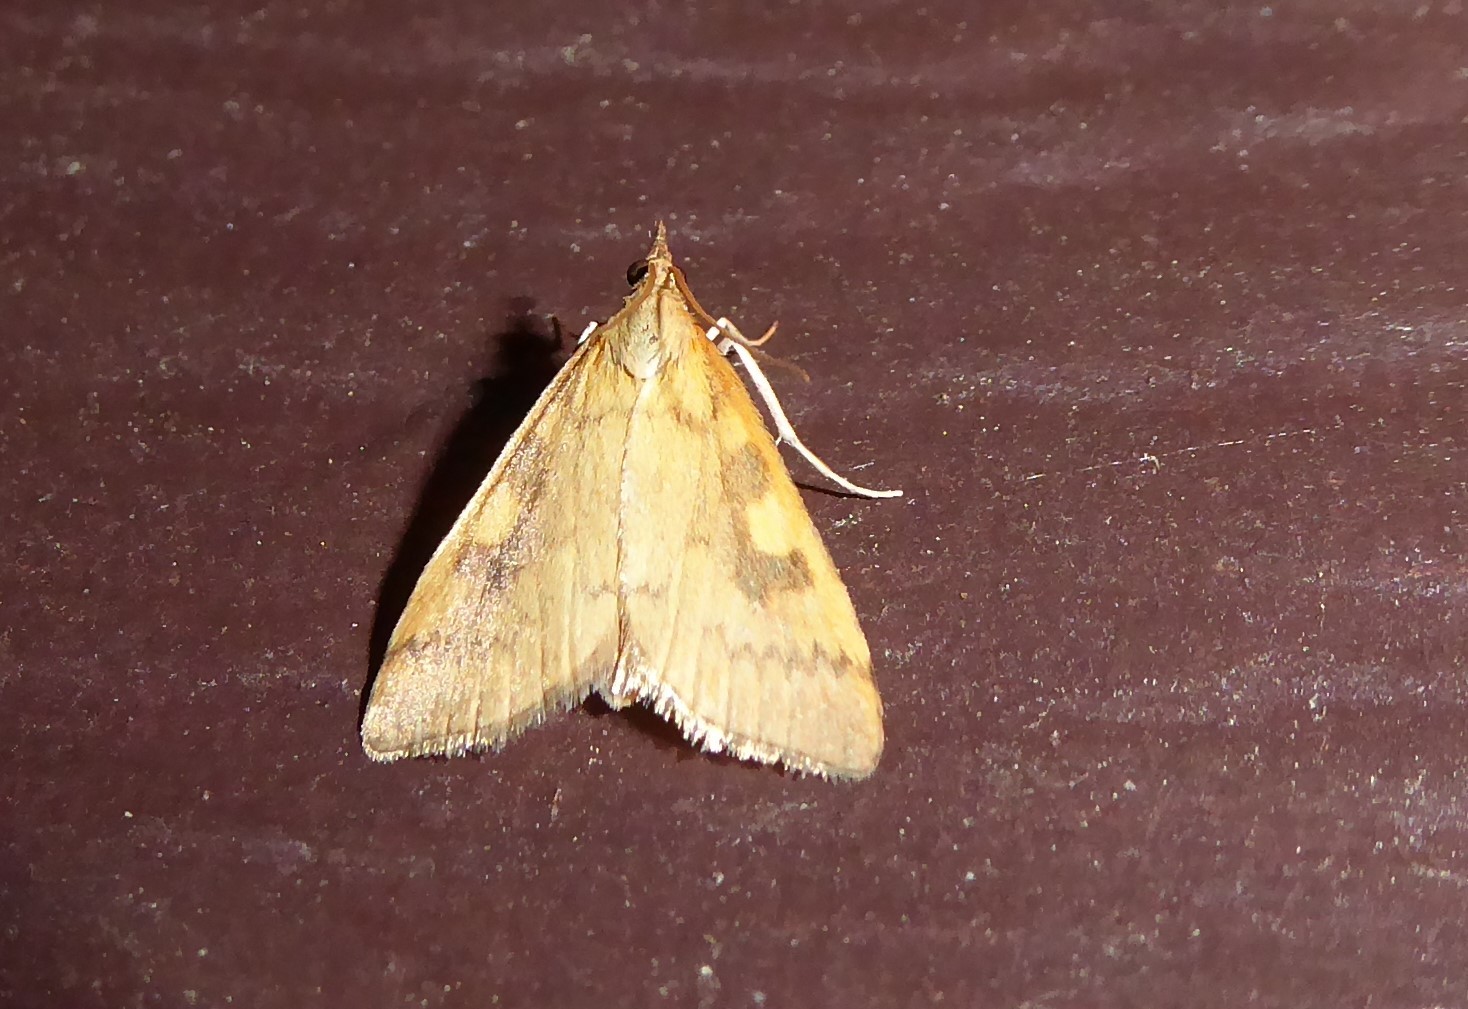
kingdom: Animalia
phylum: Arthropoda
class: Insecta
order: Lepidoptera
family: Crambidae
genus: Udea
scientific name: Udea Mnesictena flavidalis
